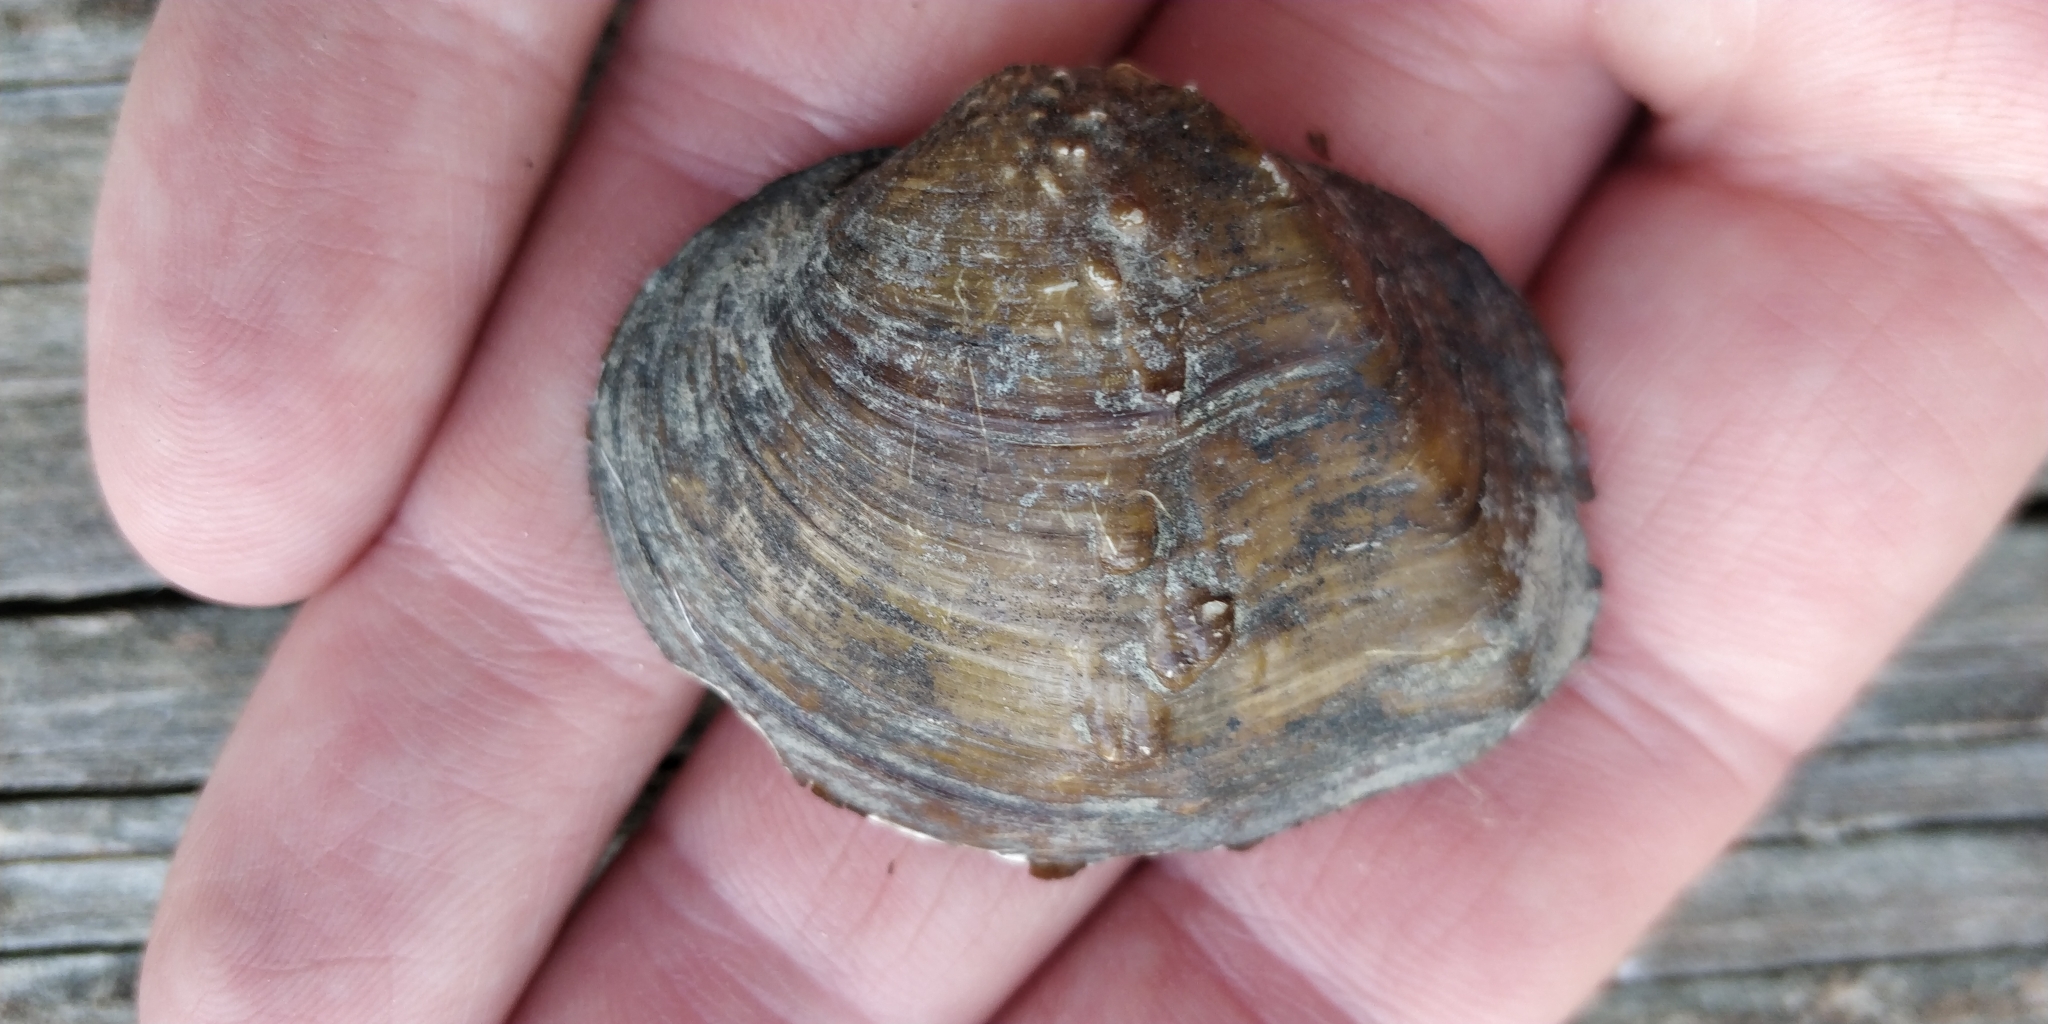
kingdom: Animalia
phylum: Mollusca
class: Bivalvia
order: Unionida
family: Unionidae
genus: Quadrula
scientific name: Quadrula quadrula
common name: Mapleleaf
